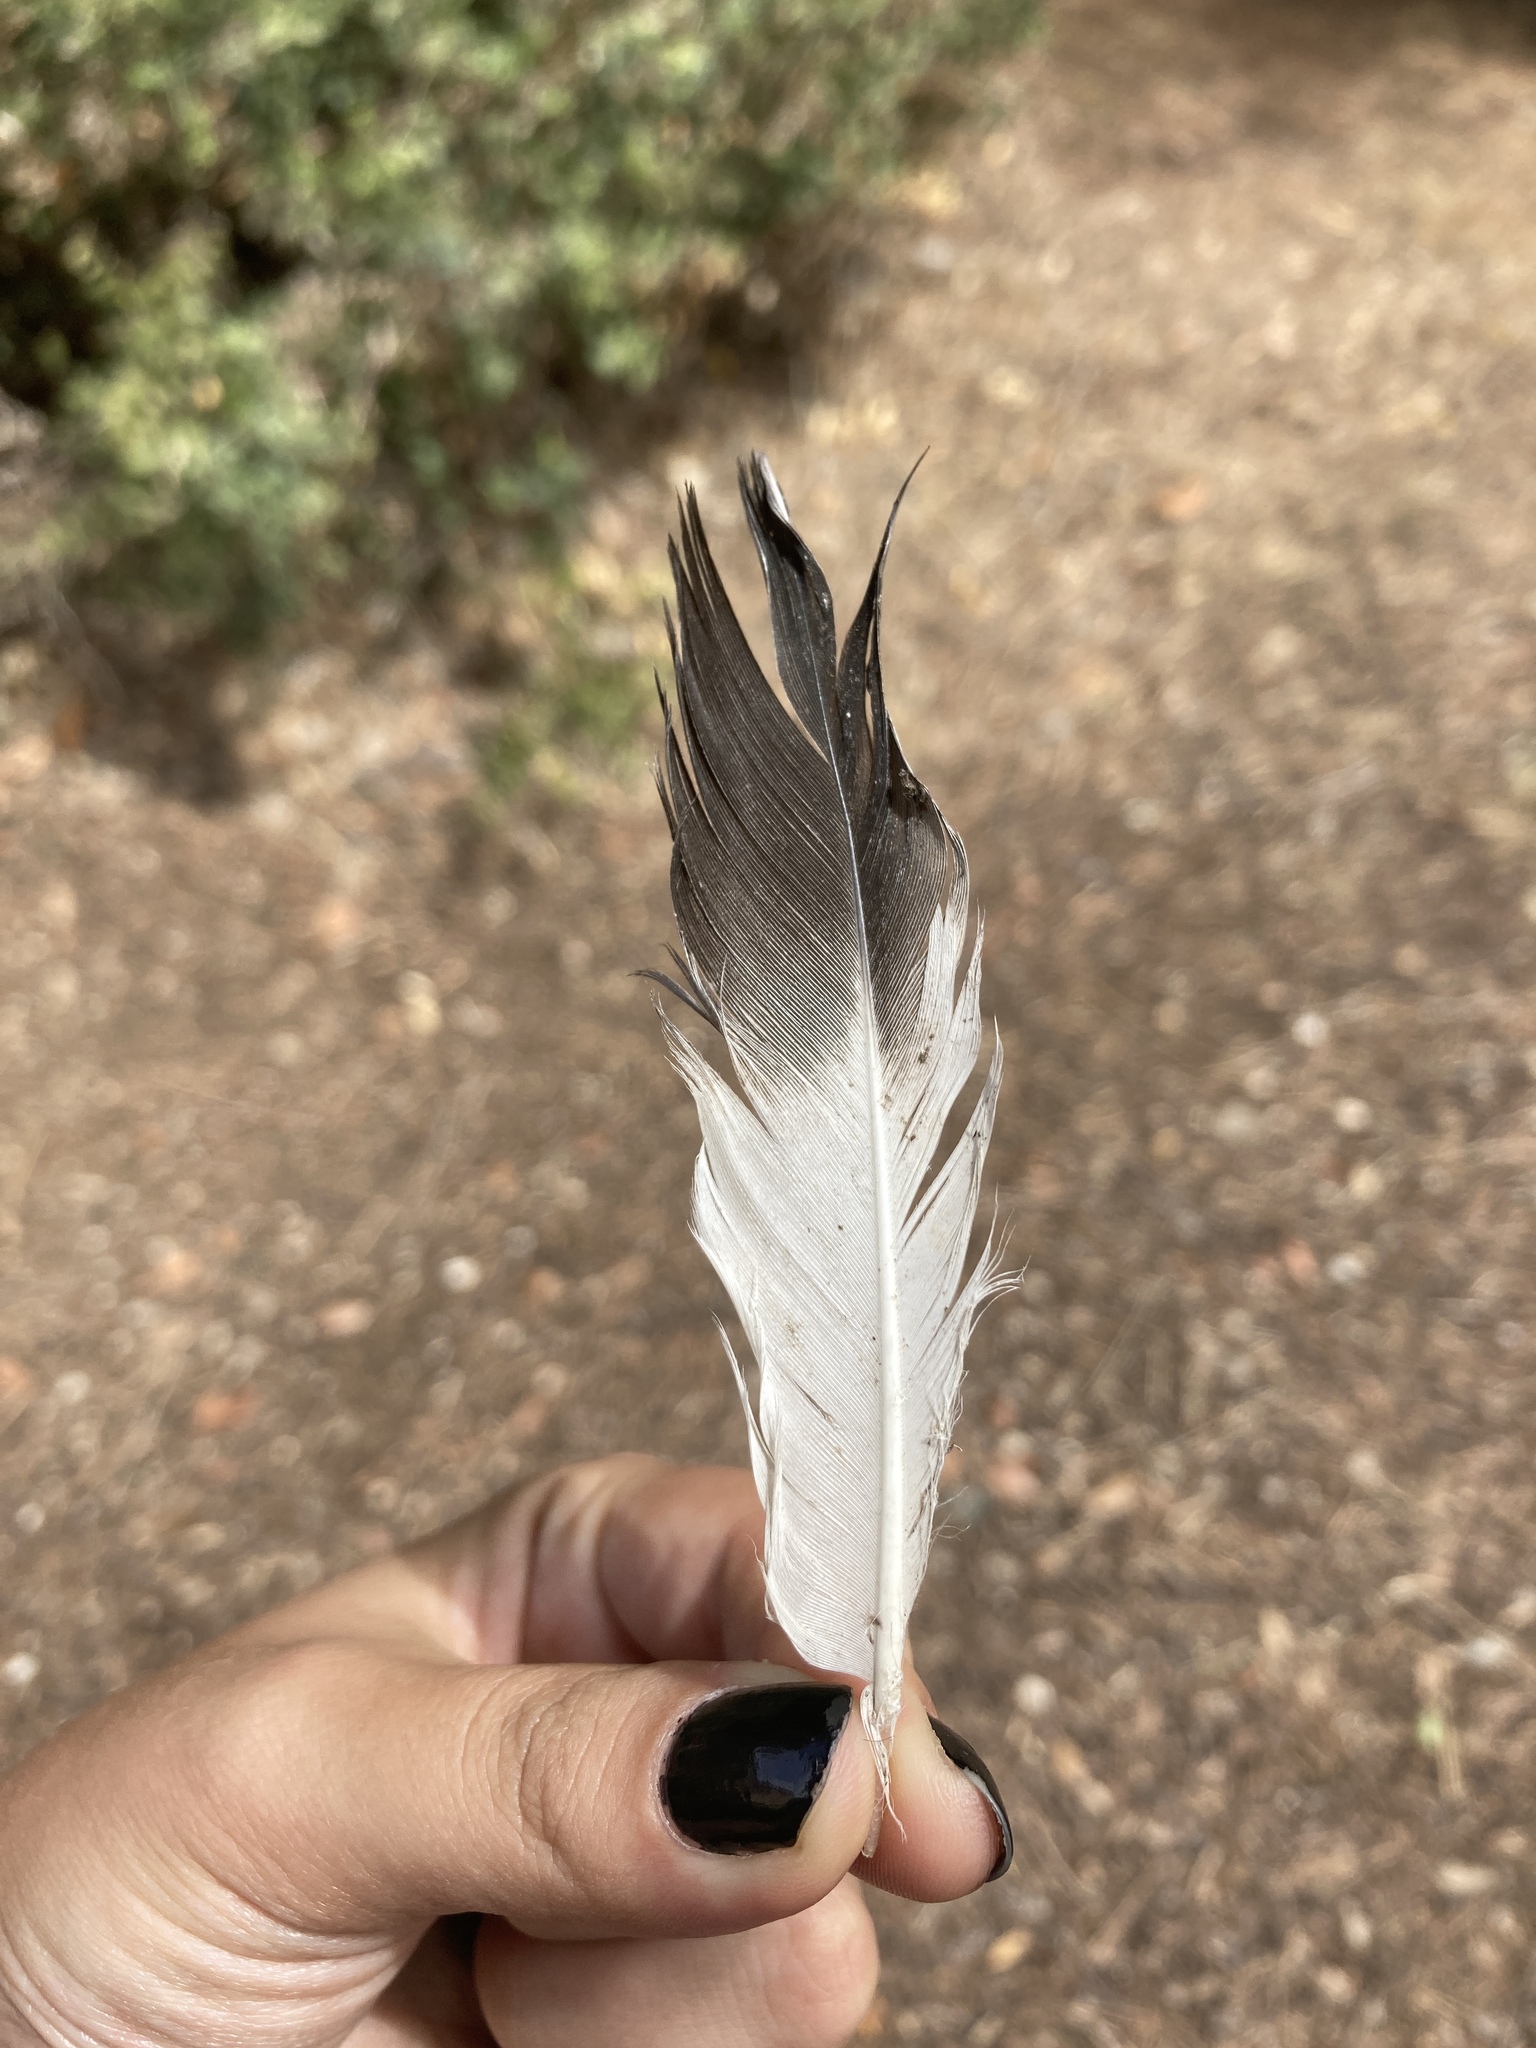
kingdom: Animalia
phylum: Chordata
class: Aves
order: Anseriformes
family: Anatidae
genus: Tadorna
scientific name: Tadorna ferruginea
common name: Ruddy shelduck
